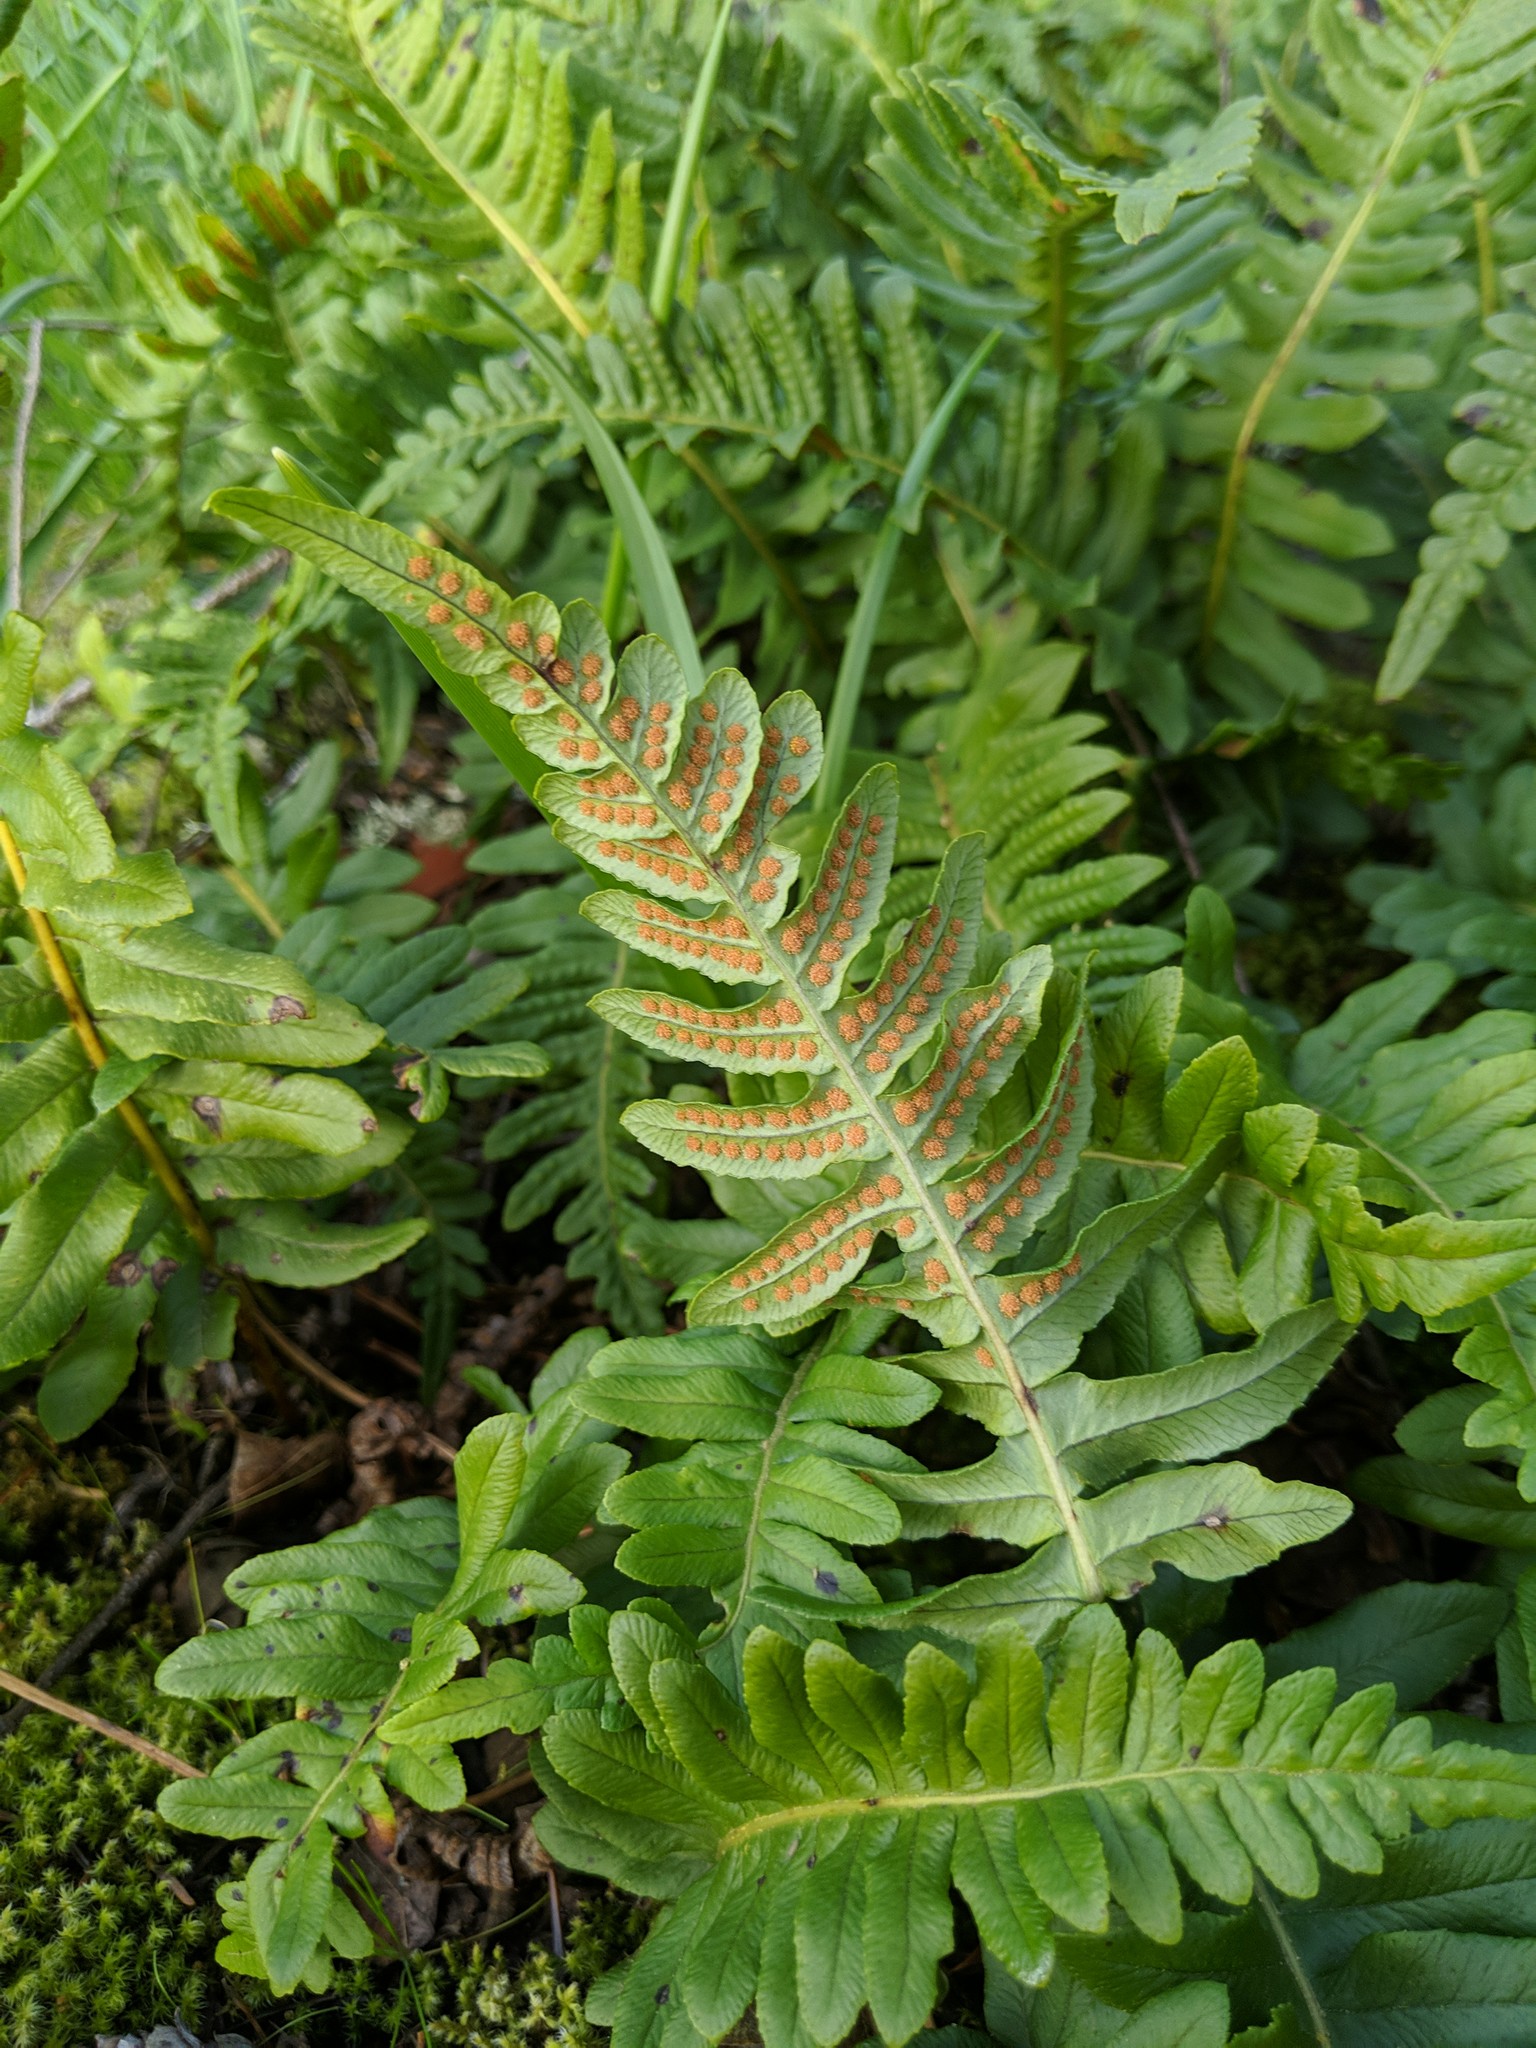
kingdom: Plantae
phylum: Tracheophyta
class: Polypodiopsida
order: Polypodiales
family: Polypodiaceae
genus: Polypodium
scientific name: Polypodium glycyrrhiza
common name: Licorice fern
